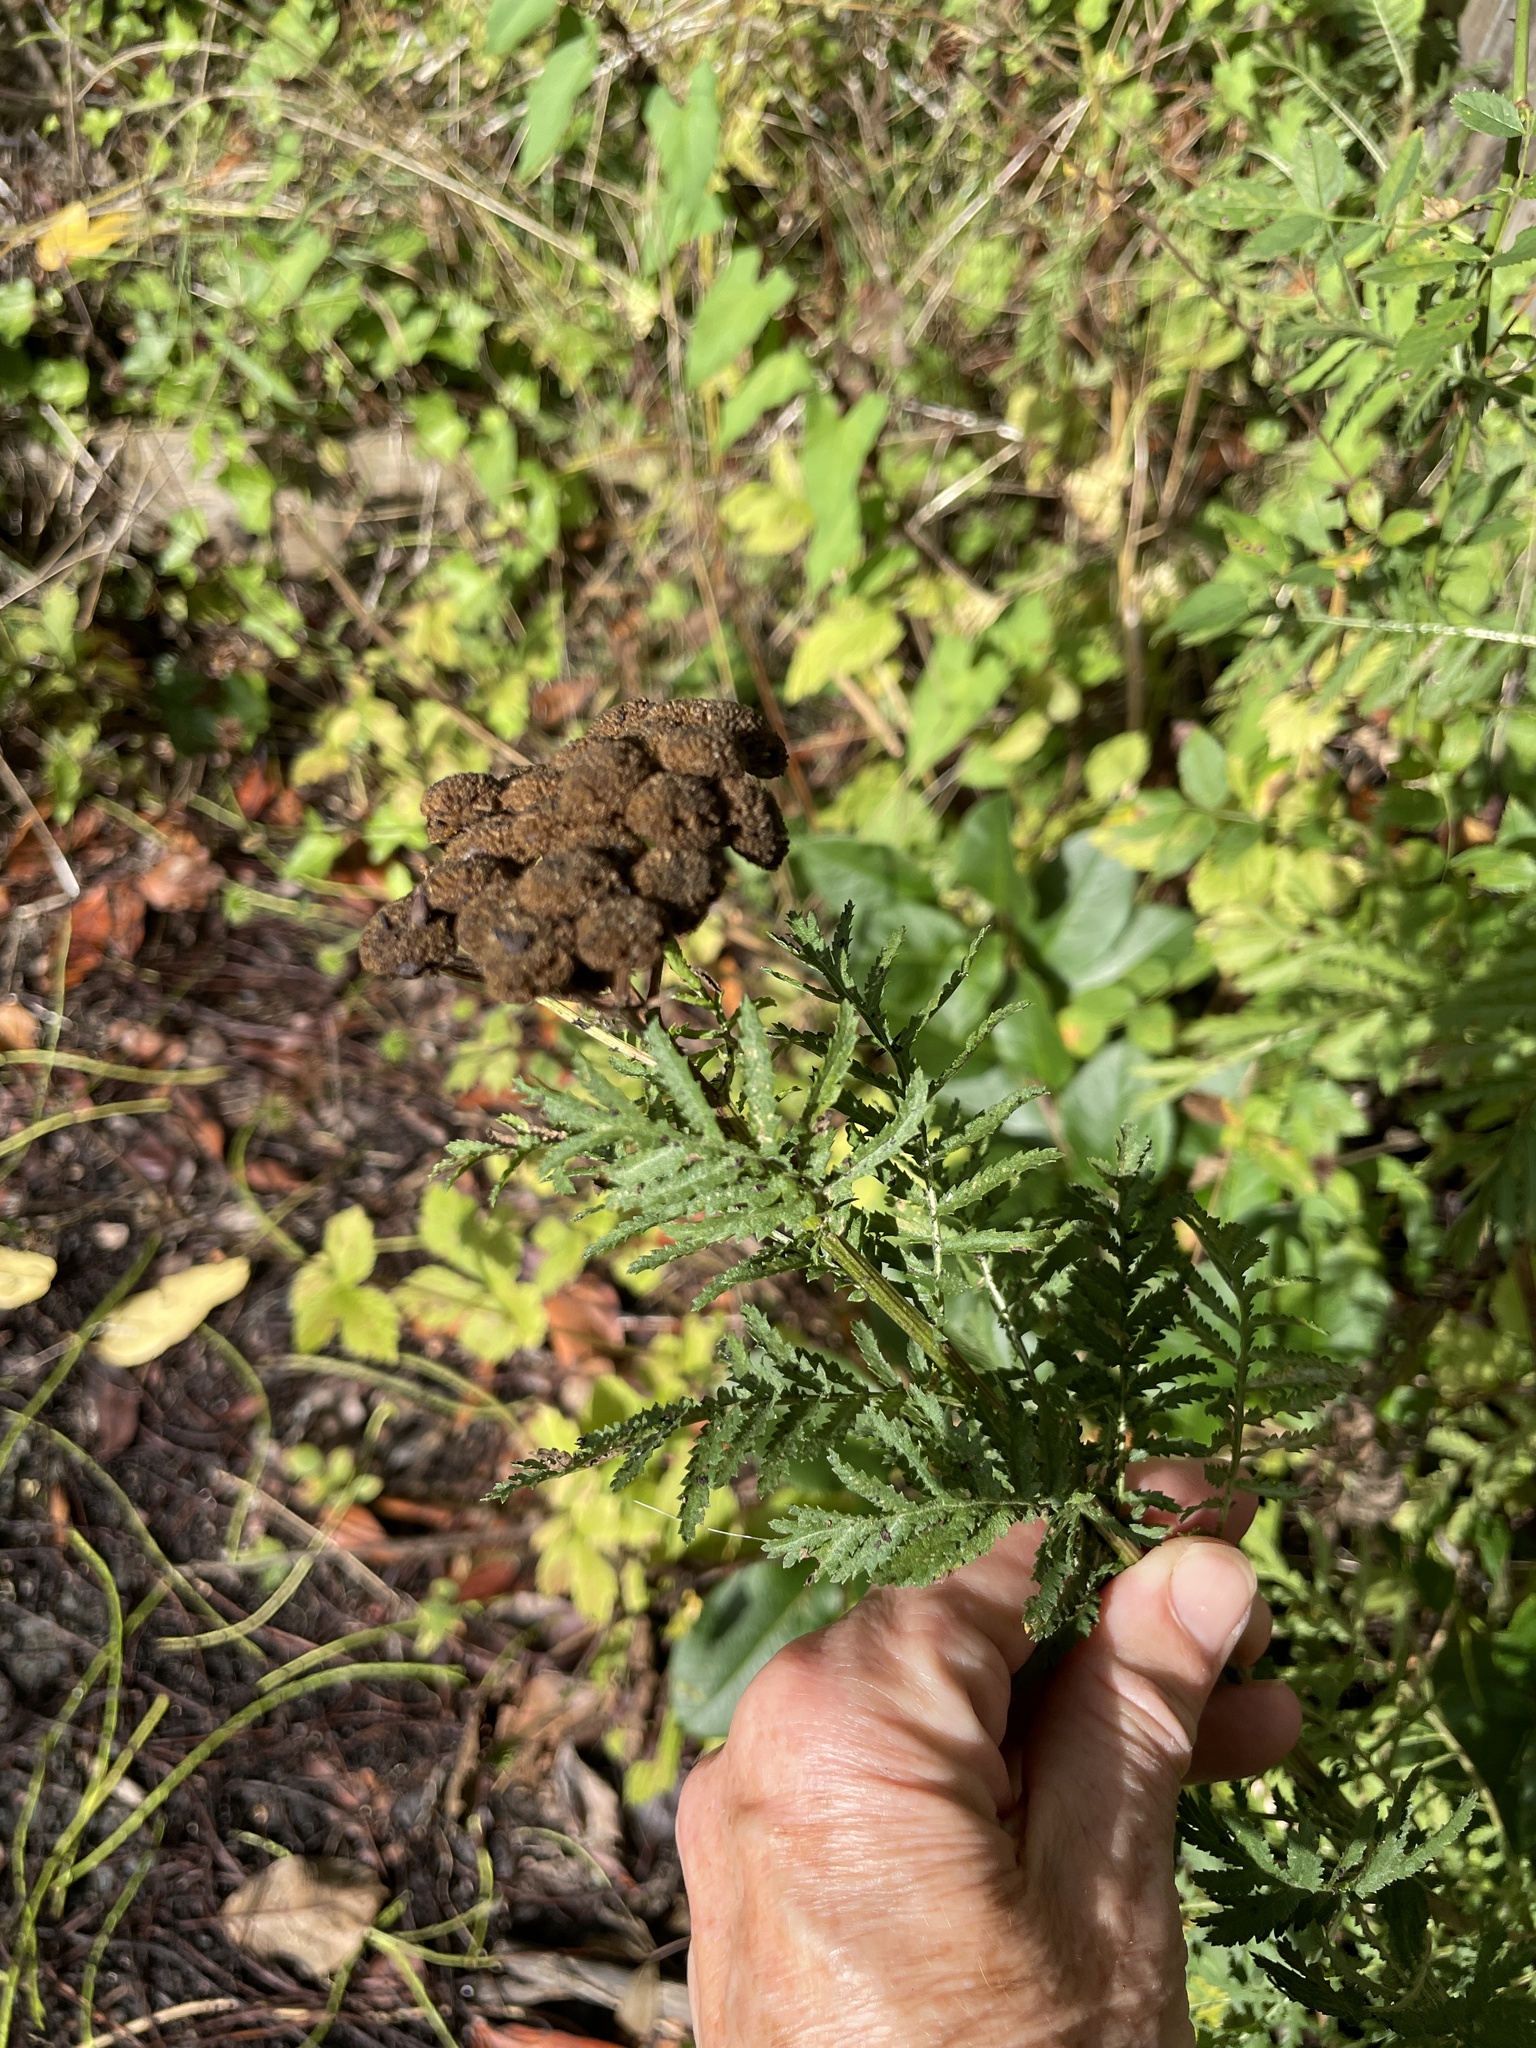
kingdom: Plantae
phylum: Tracheophyta
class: Magnoliopsida
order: Asterales
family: Asteraceae
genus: Tanacetum
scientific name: Tanacetum vulgare
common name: Common tansy
